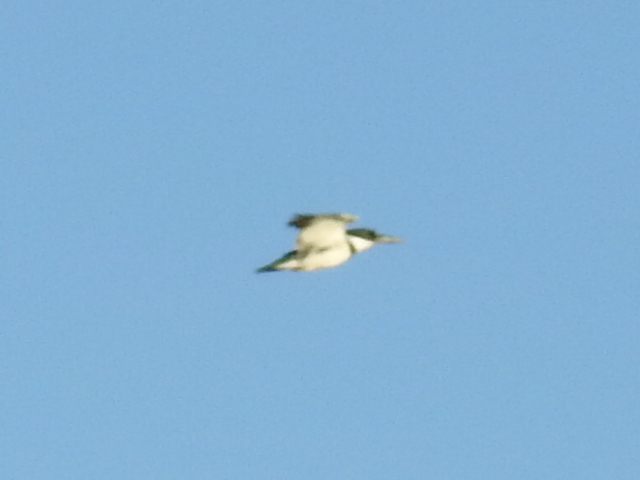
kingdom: Animalia
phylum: Chordata
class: Aves
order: Coraciiformes
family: Alcedinidae
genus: Megaceryle
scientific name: Megaceryle alcyon
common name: Belted kingfisher
